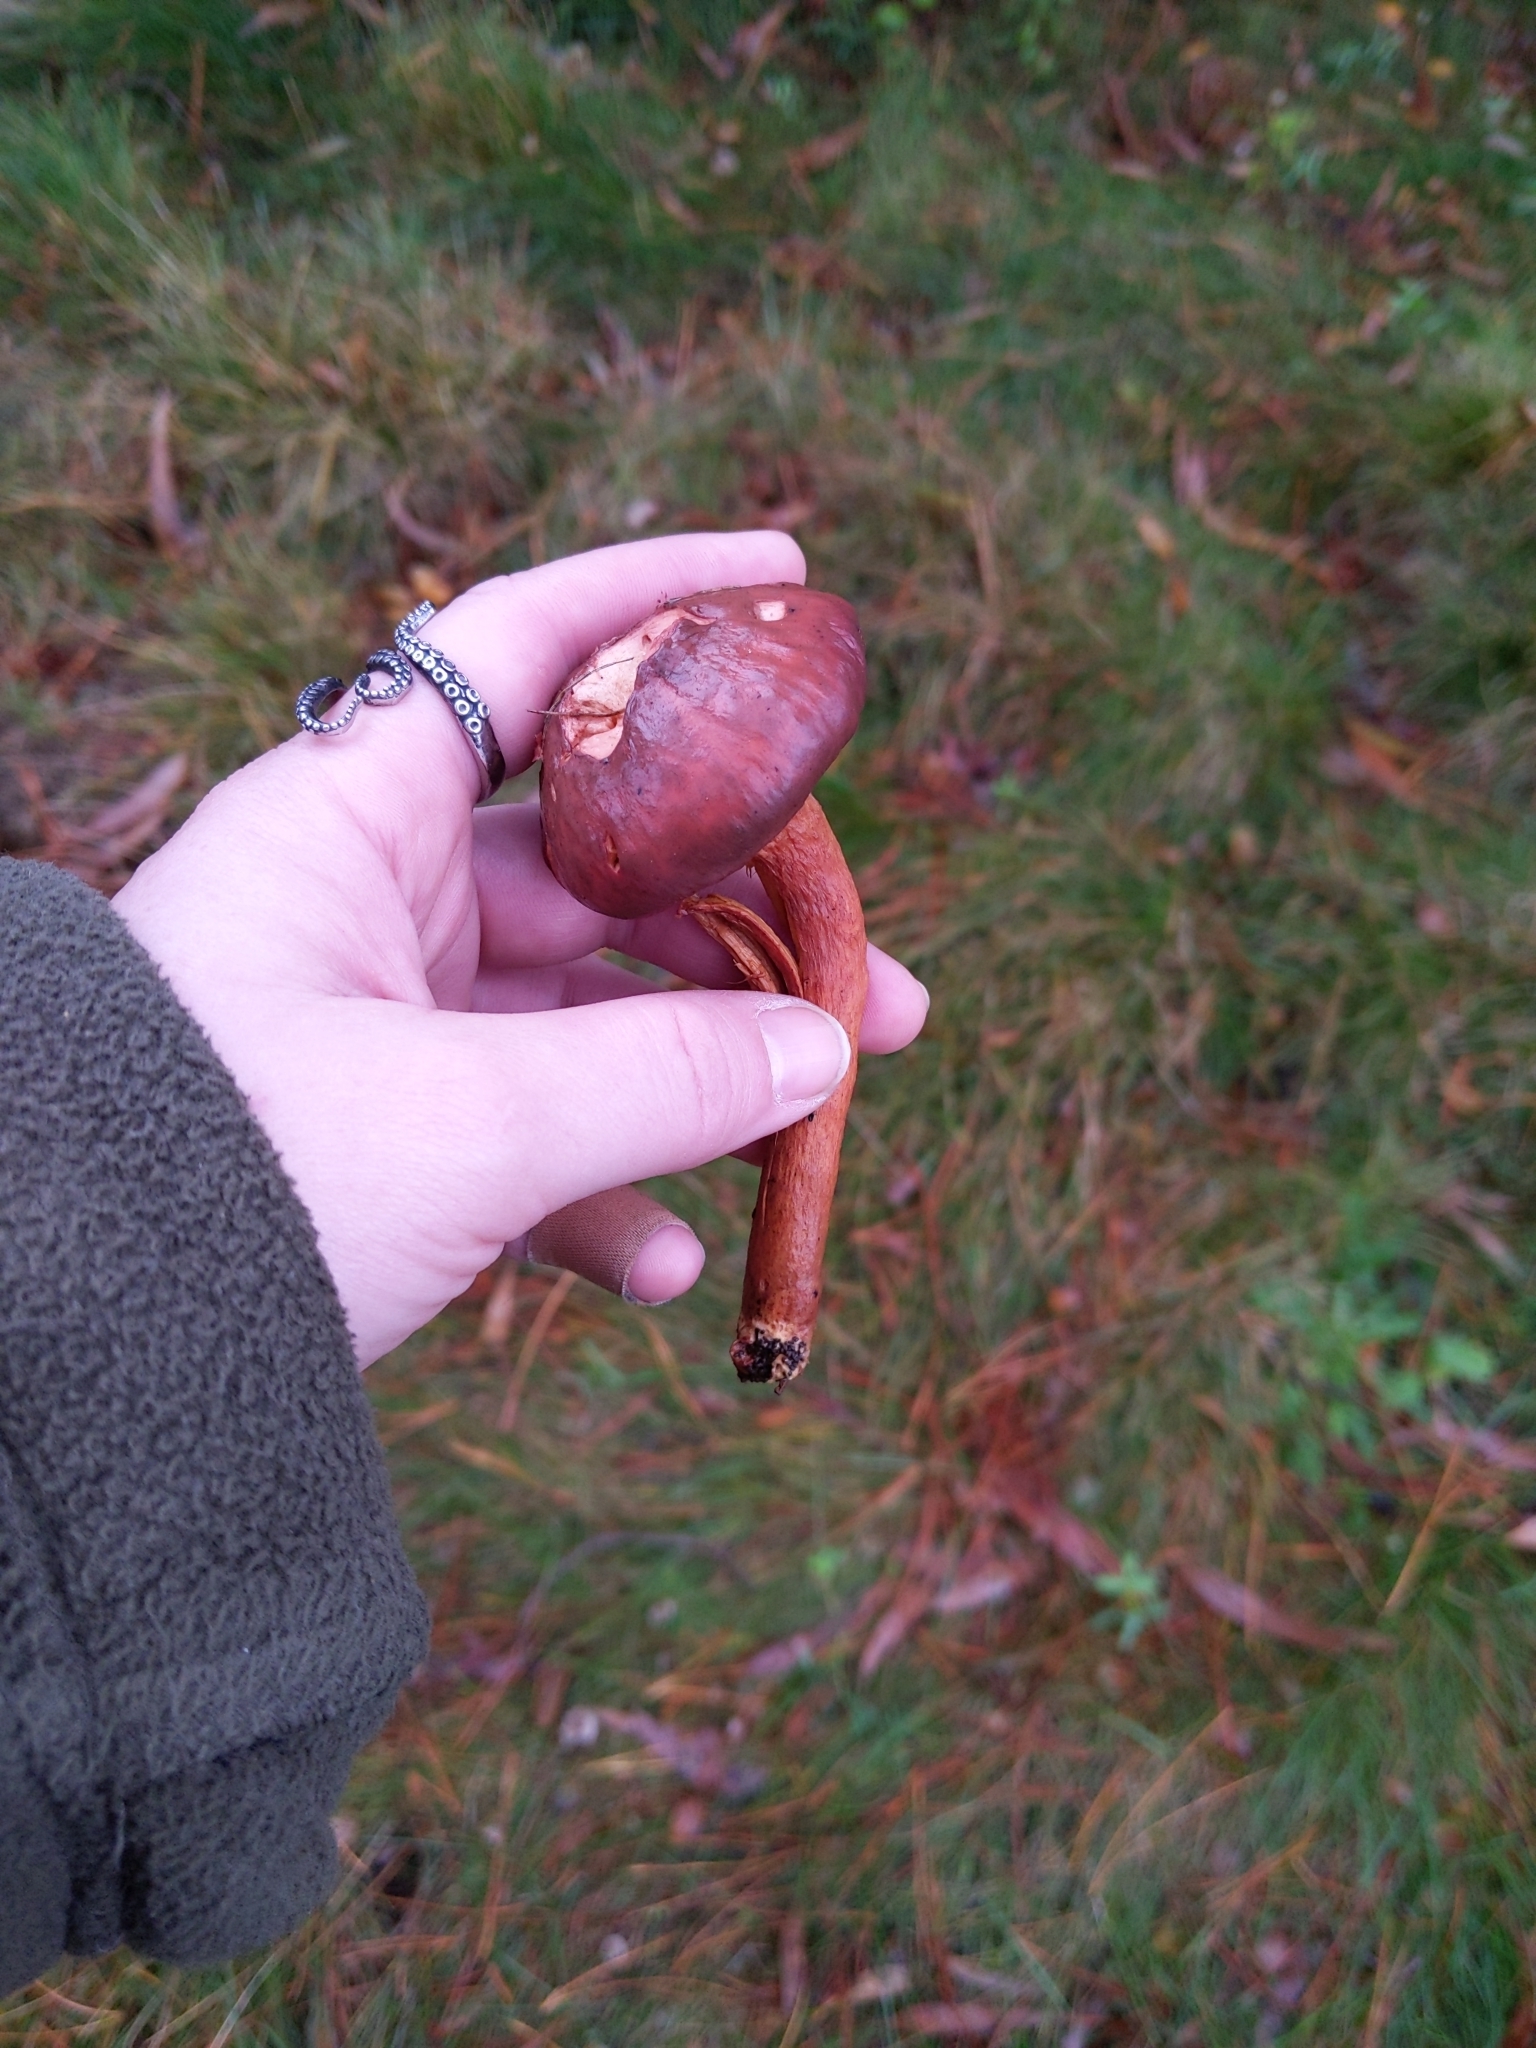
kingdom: Fungi
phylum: Basidiomycota
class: Agaricomycetes
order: Boletales
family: Gomphidiaceae
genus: Chroogomphus
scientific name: Chroogomphus vinicolor
